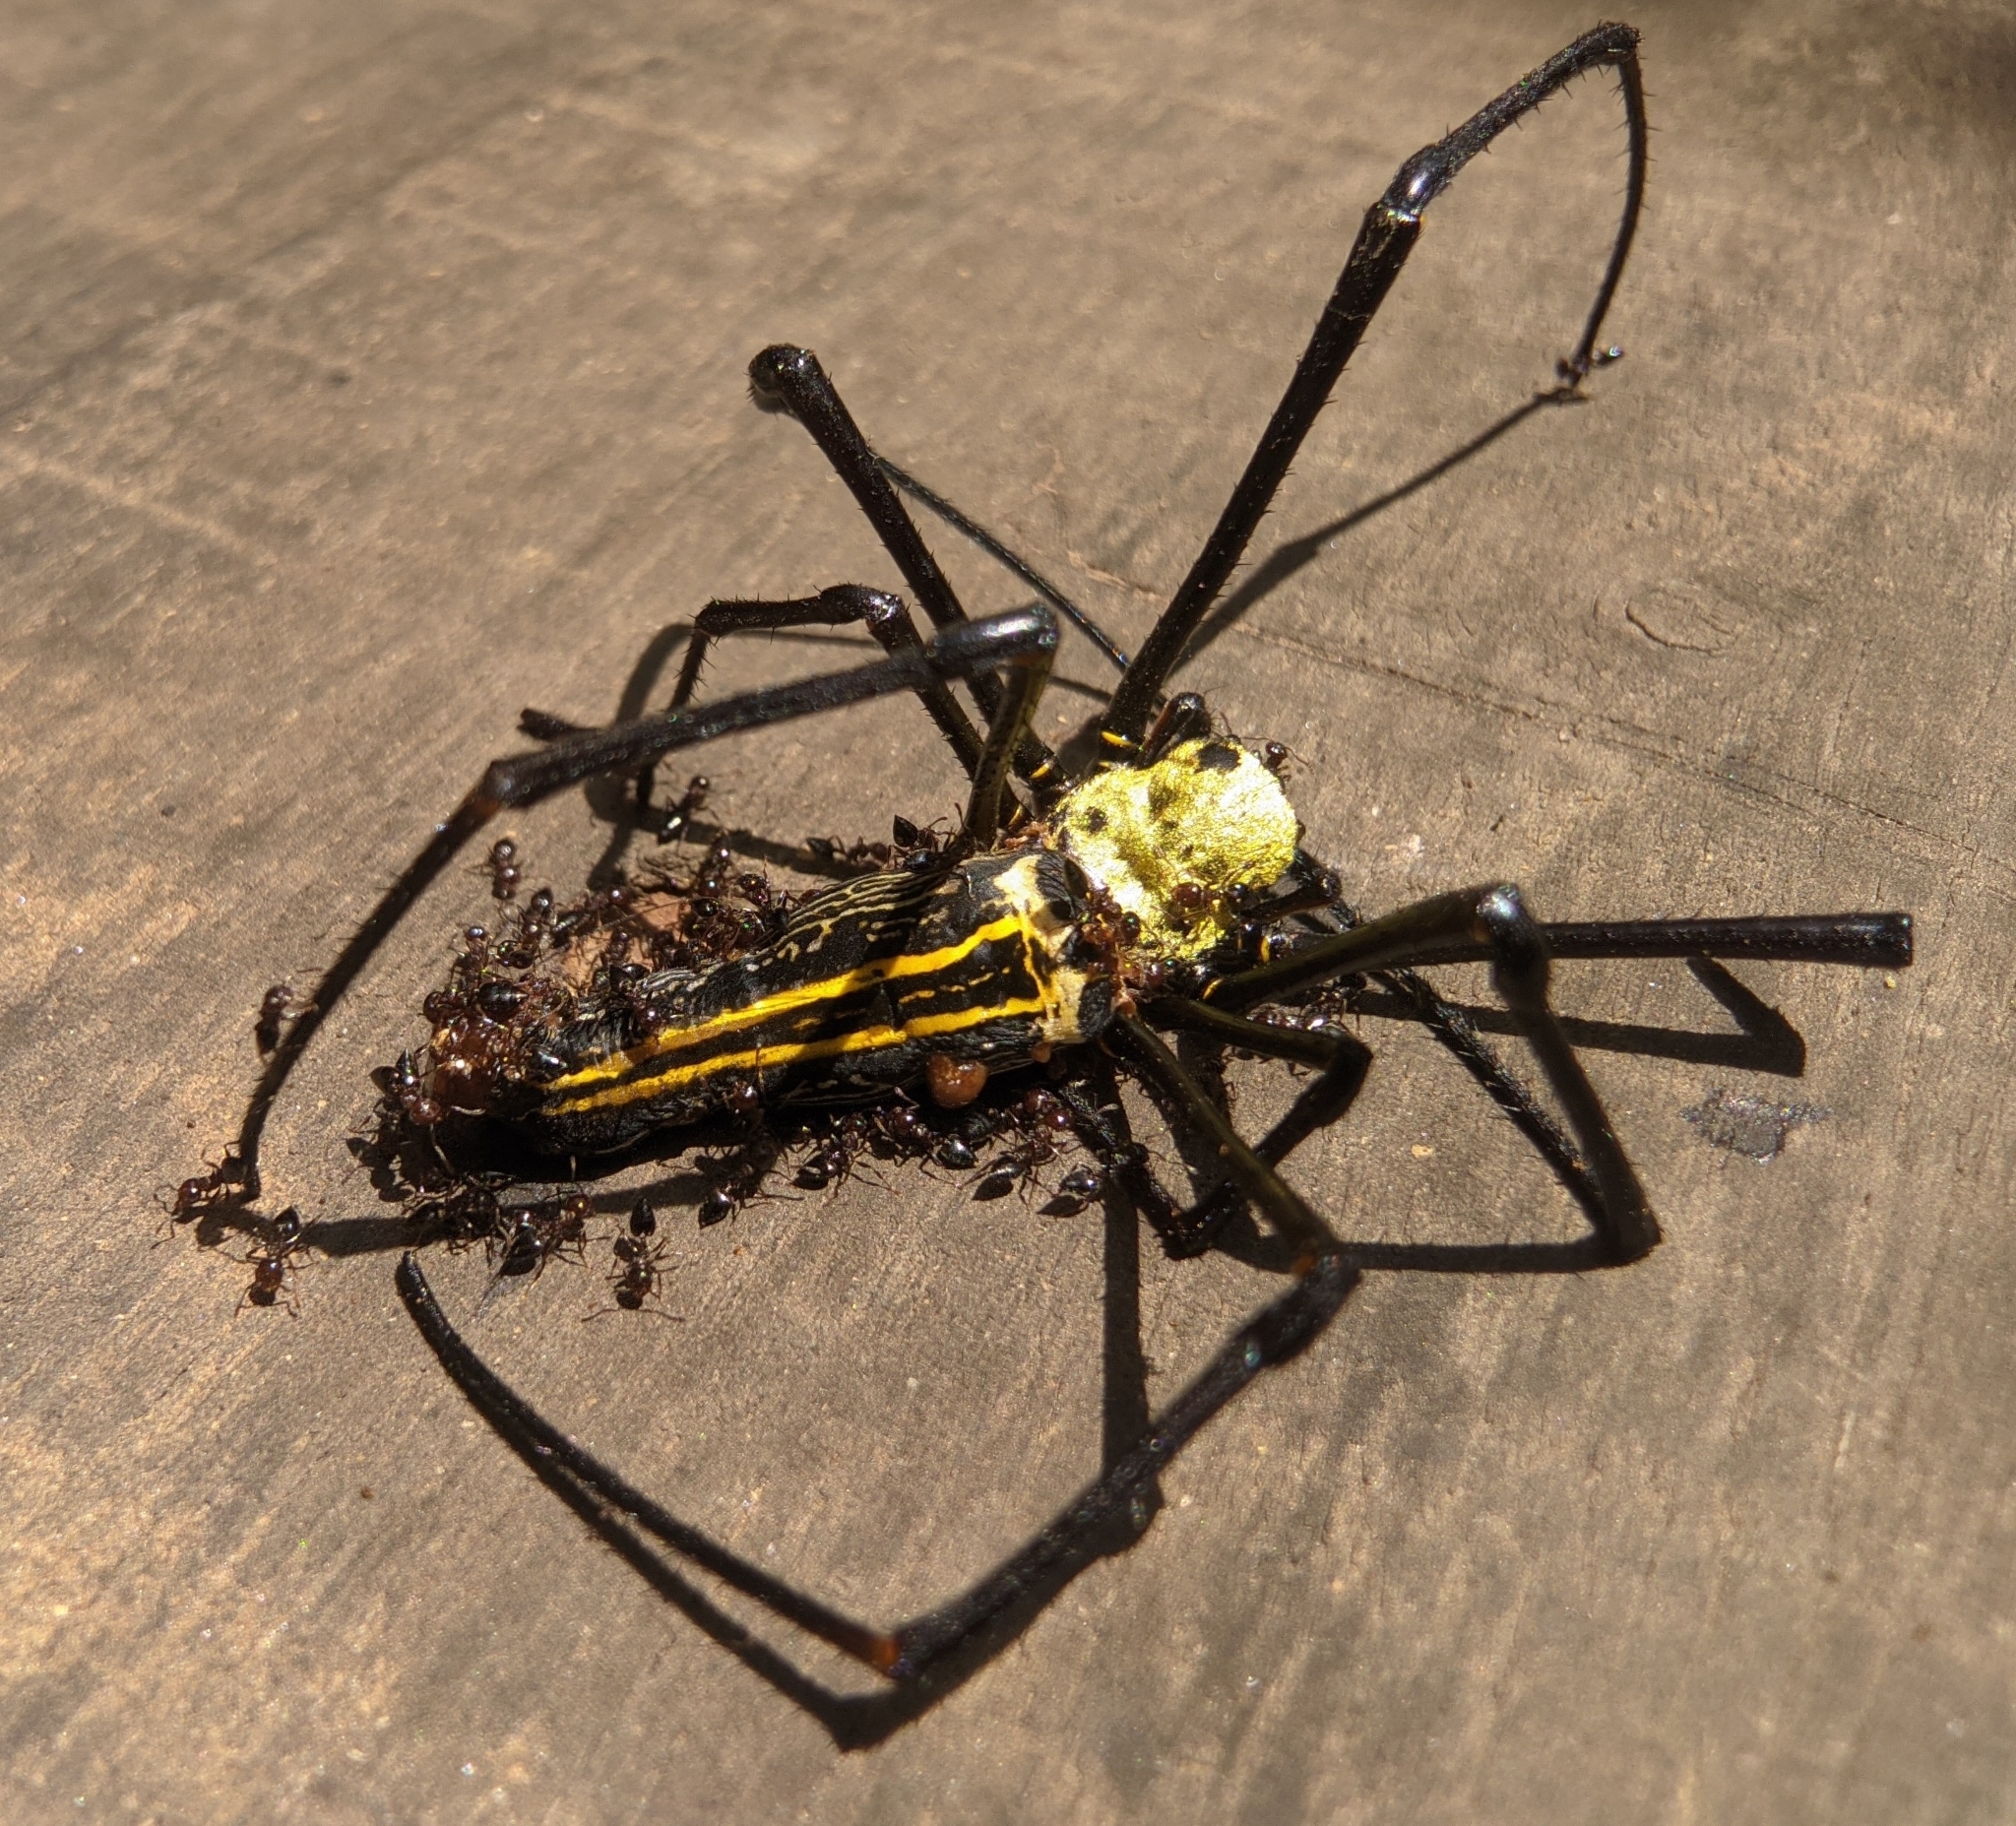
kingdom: Animalia
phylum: Arthropoda
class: Arachnida
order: Araneae
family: Araneidae
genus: Nephila
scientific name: Nephila pilipes
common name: Giant golden orb weaver
